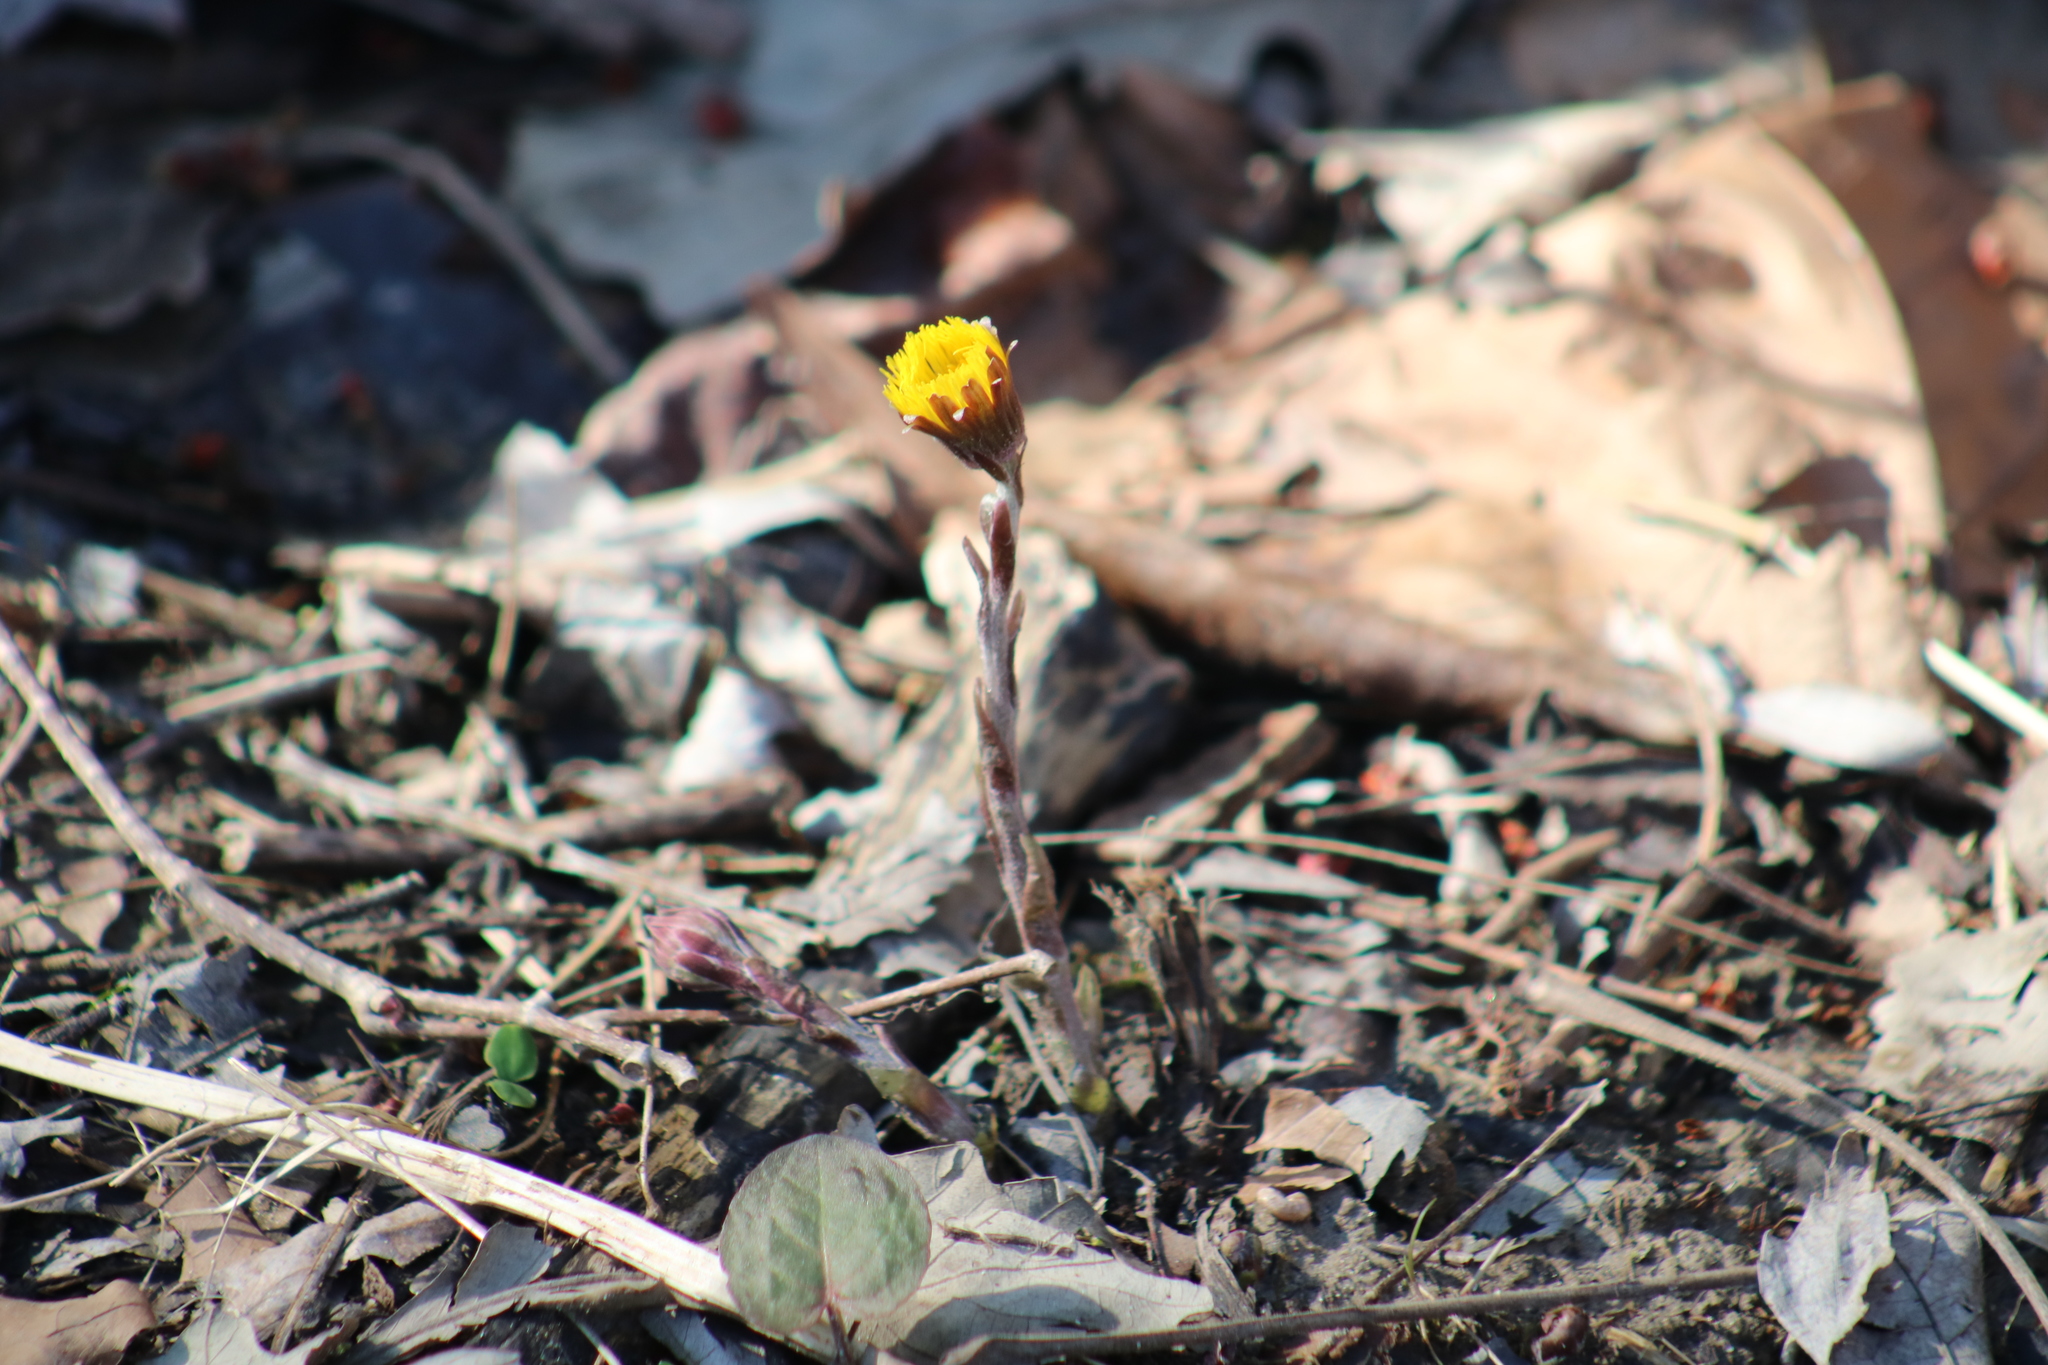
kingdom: Plantae
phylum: Tracheophyta
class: Magnoliopsida
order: Asterales
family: Asteraceae
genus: Tussilago
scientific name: Tussilago farfara
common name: Coltsfoot
